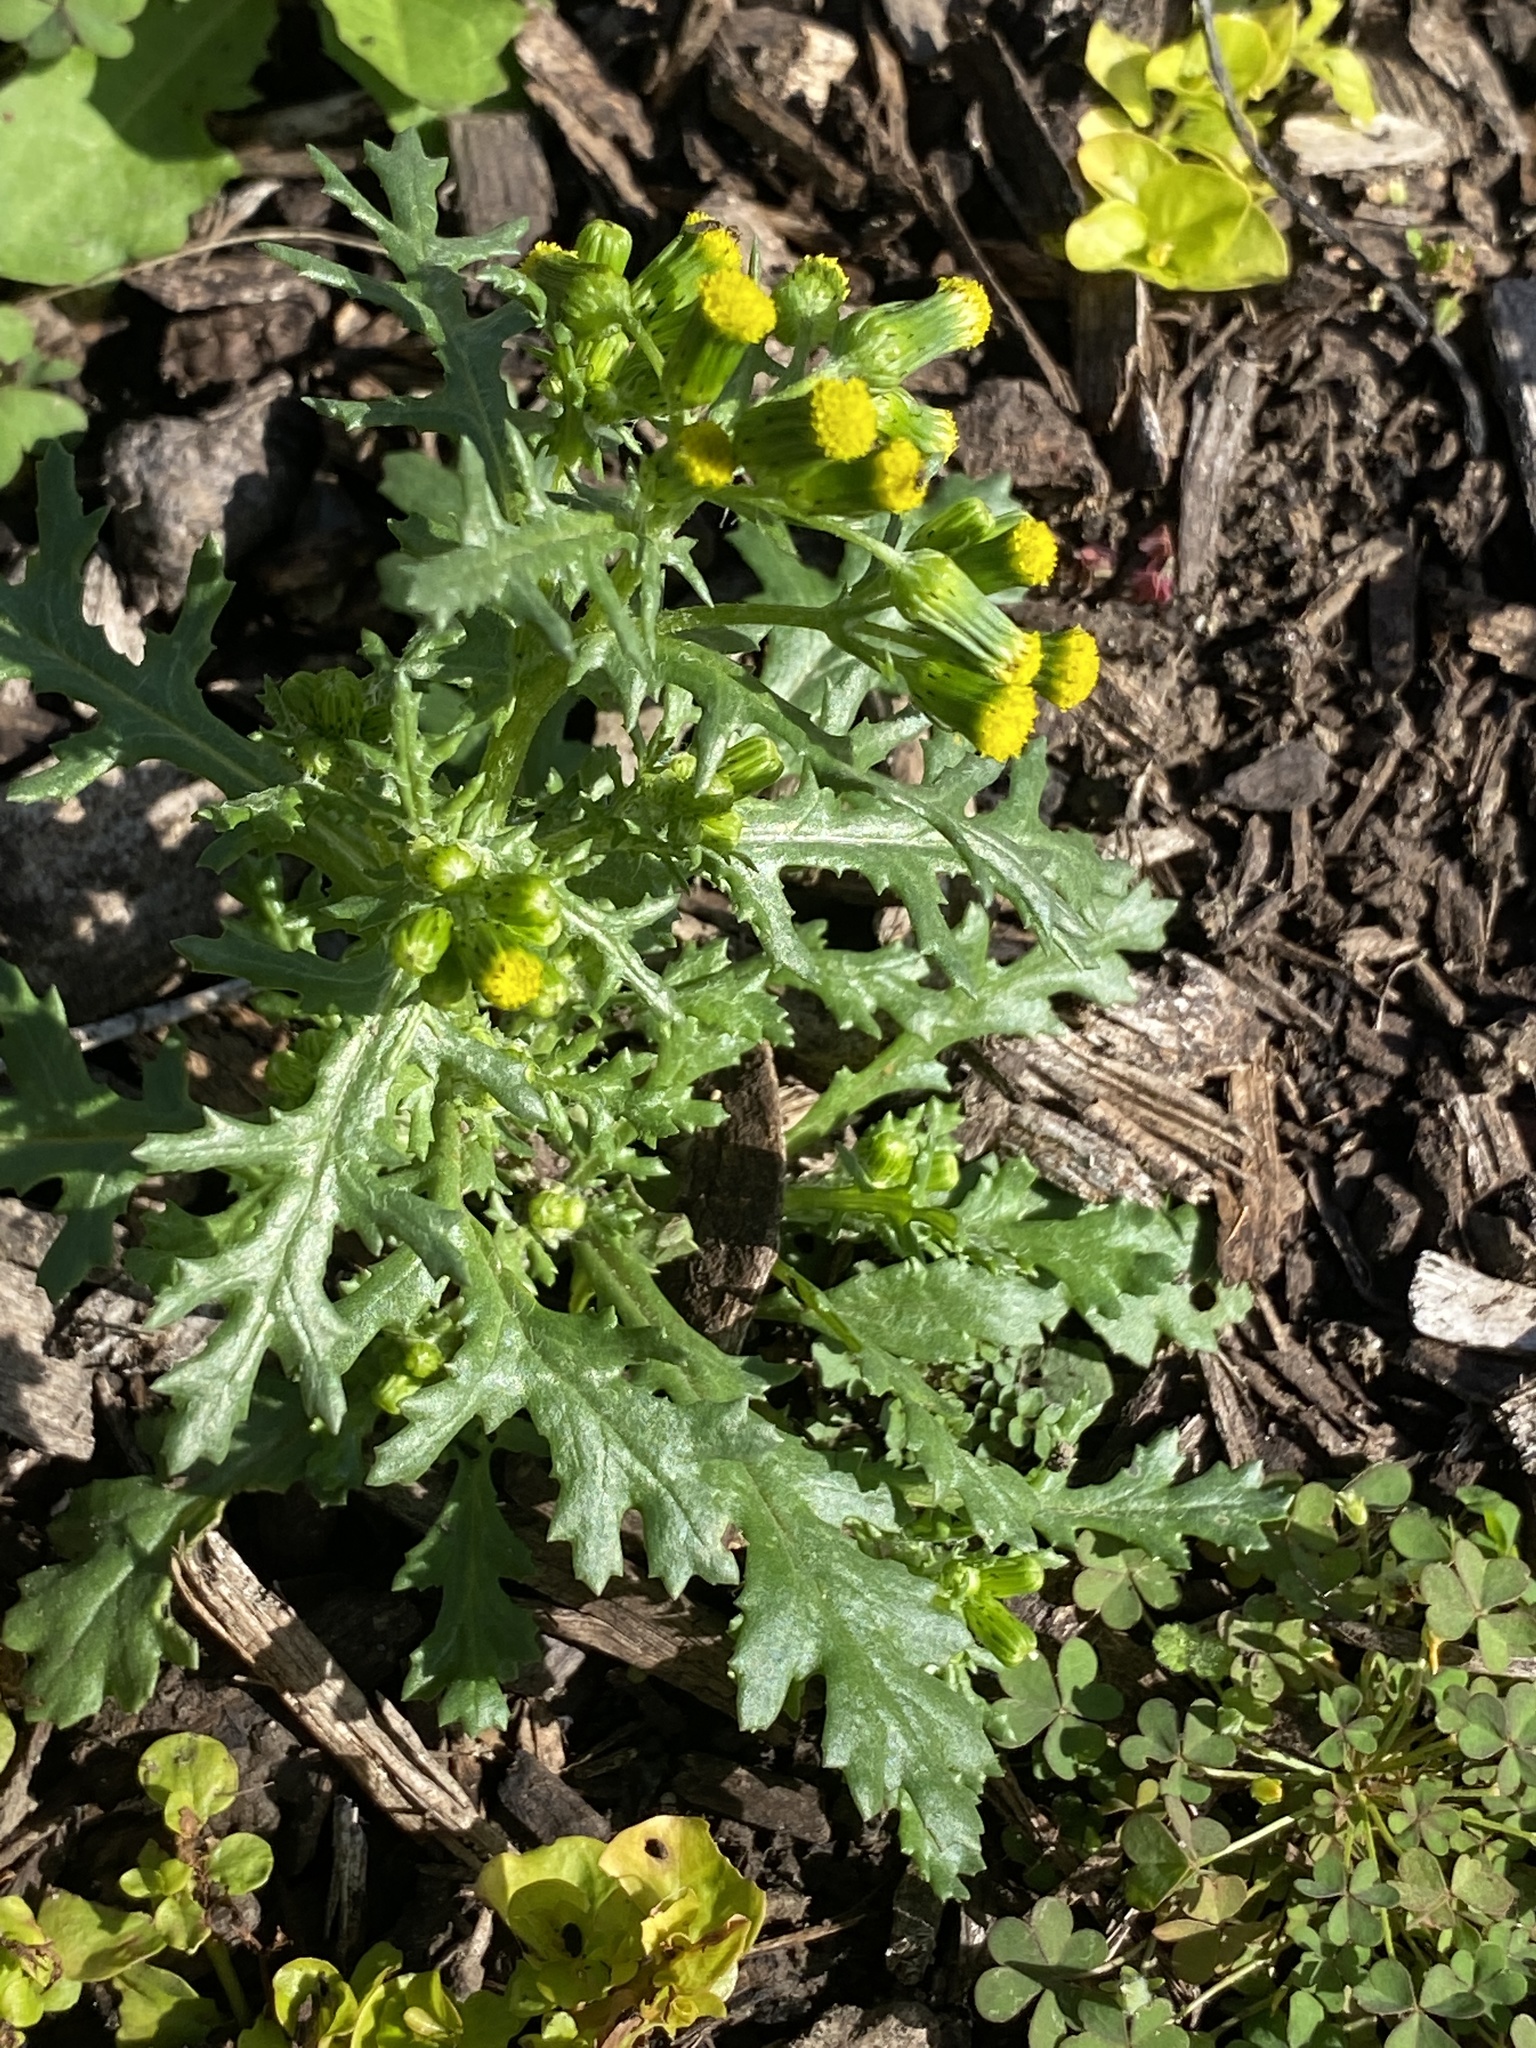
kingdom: Plantae
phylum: Tracheophyta
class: Magnoliopsida
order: Asterales
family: Asteraceae
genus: Senecio
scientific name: Senecio vulgaris
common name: Old-man-in-the-spring
